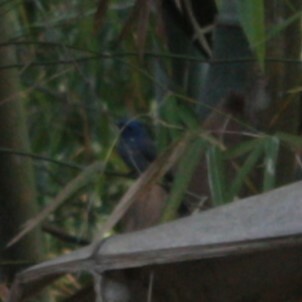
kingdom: Animalia
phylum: Chordata
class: Aves
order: Passeriformes
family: Monarchidae
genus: Hypothymis
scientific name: Hypothymis azurea
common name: Black-naped monarch
